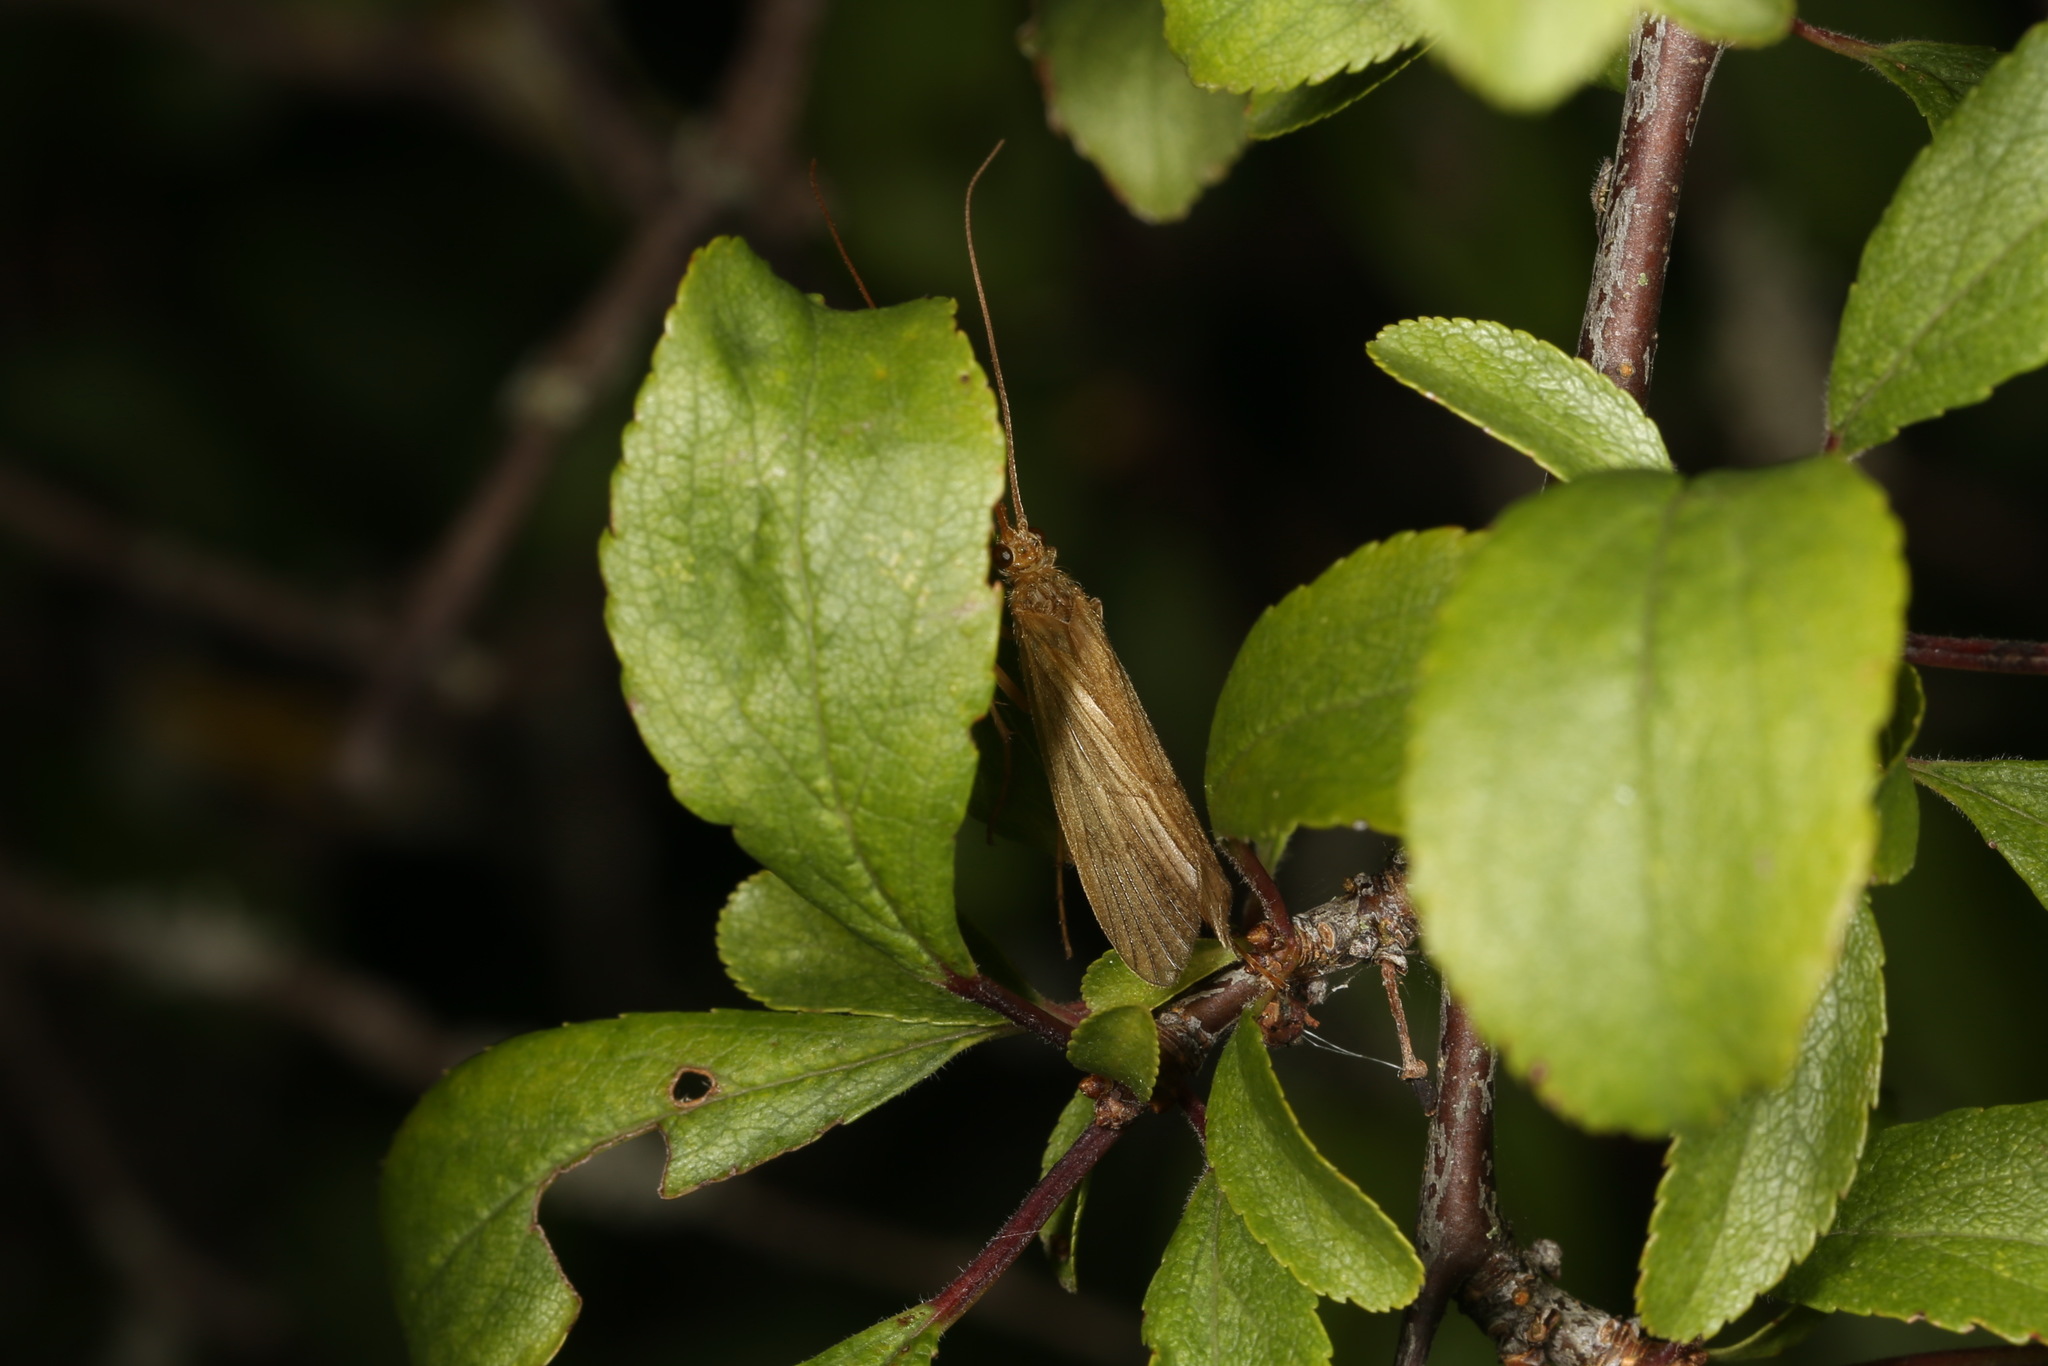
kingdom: Animalia
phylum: Arthropoda
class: Insecta
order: Trichoptera
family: Phryganeidae
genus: Agrypnia
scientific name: Agrypnia pagetana
